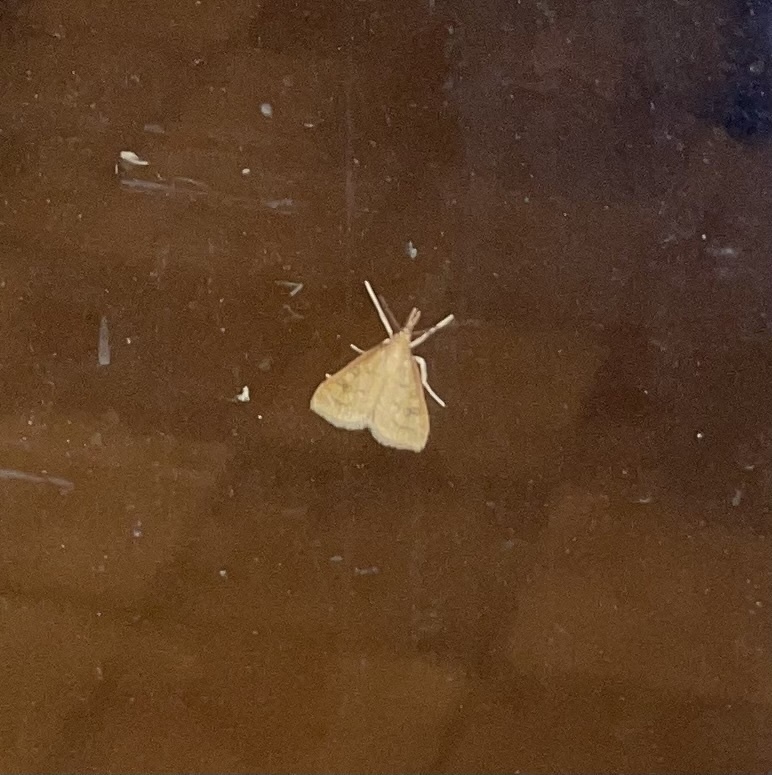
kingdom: Animalia
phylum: Arthropoda
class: Insecta
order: Lepidoptera
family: Crambidae
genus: Udea
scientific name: Udea rubigalis
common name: Celery leaftier moth
